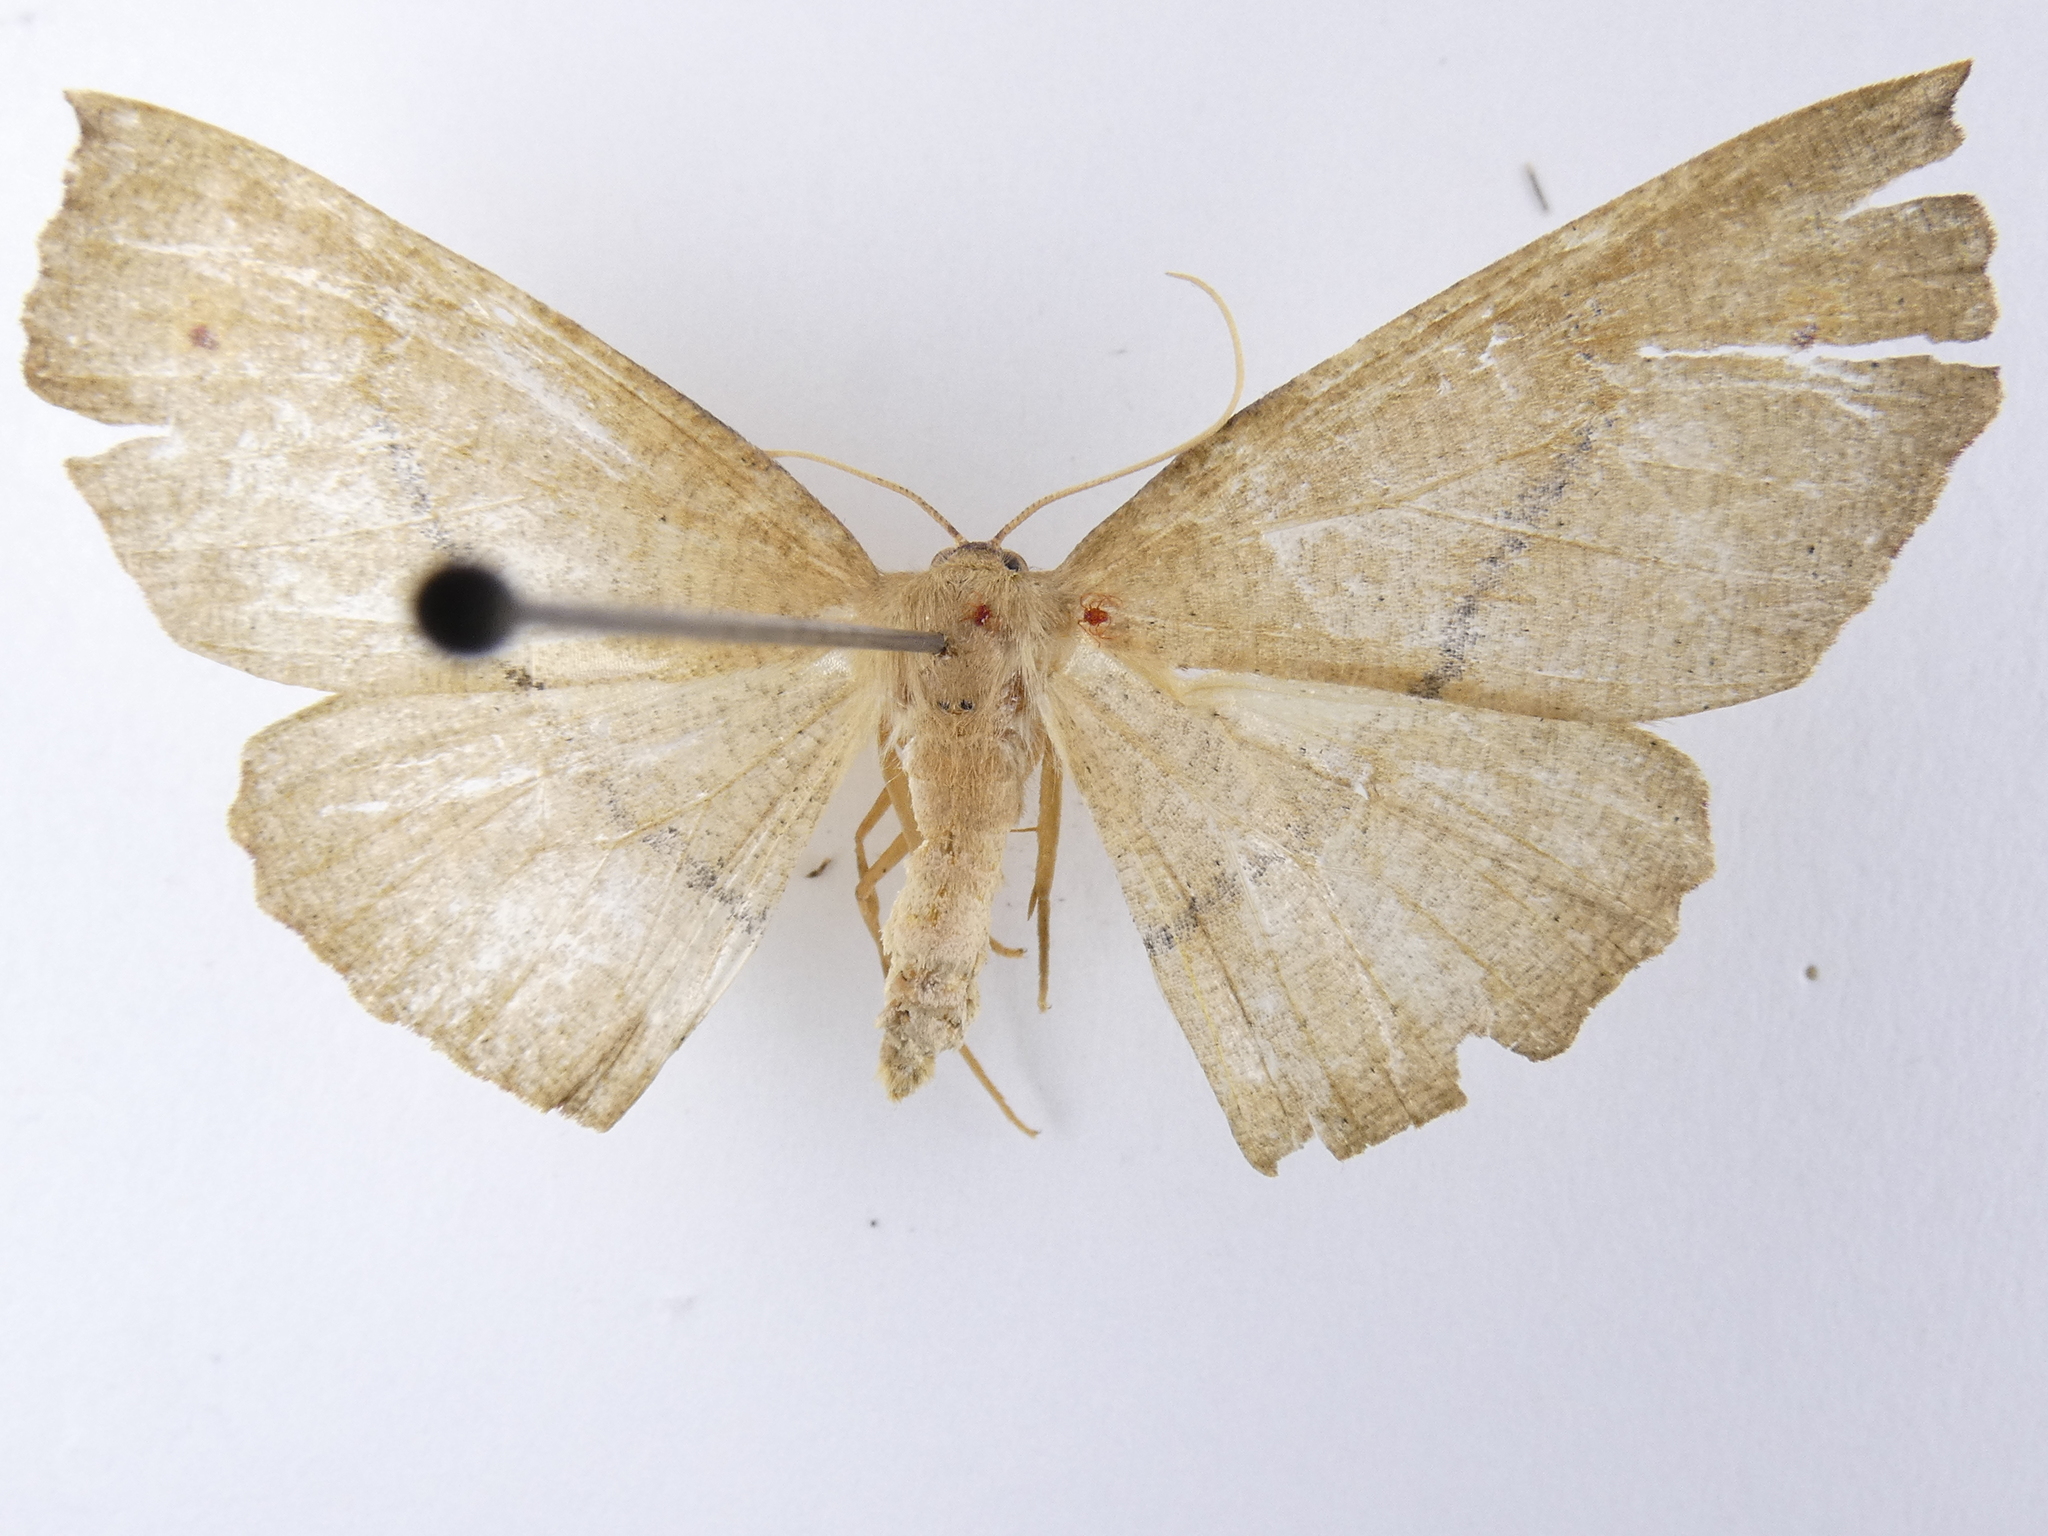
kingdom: Animalia
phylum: Arthropoda
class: Insecta
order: Lepidoptera
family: Geometridae
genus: Xyridacma
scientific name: Xyridacma ustaria
